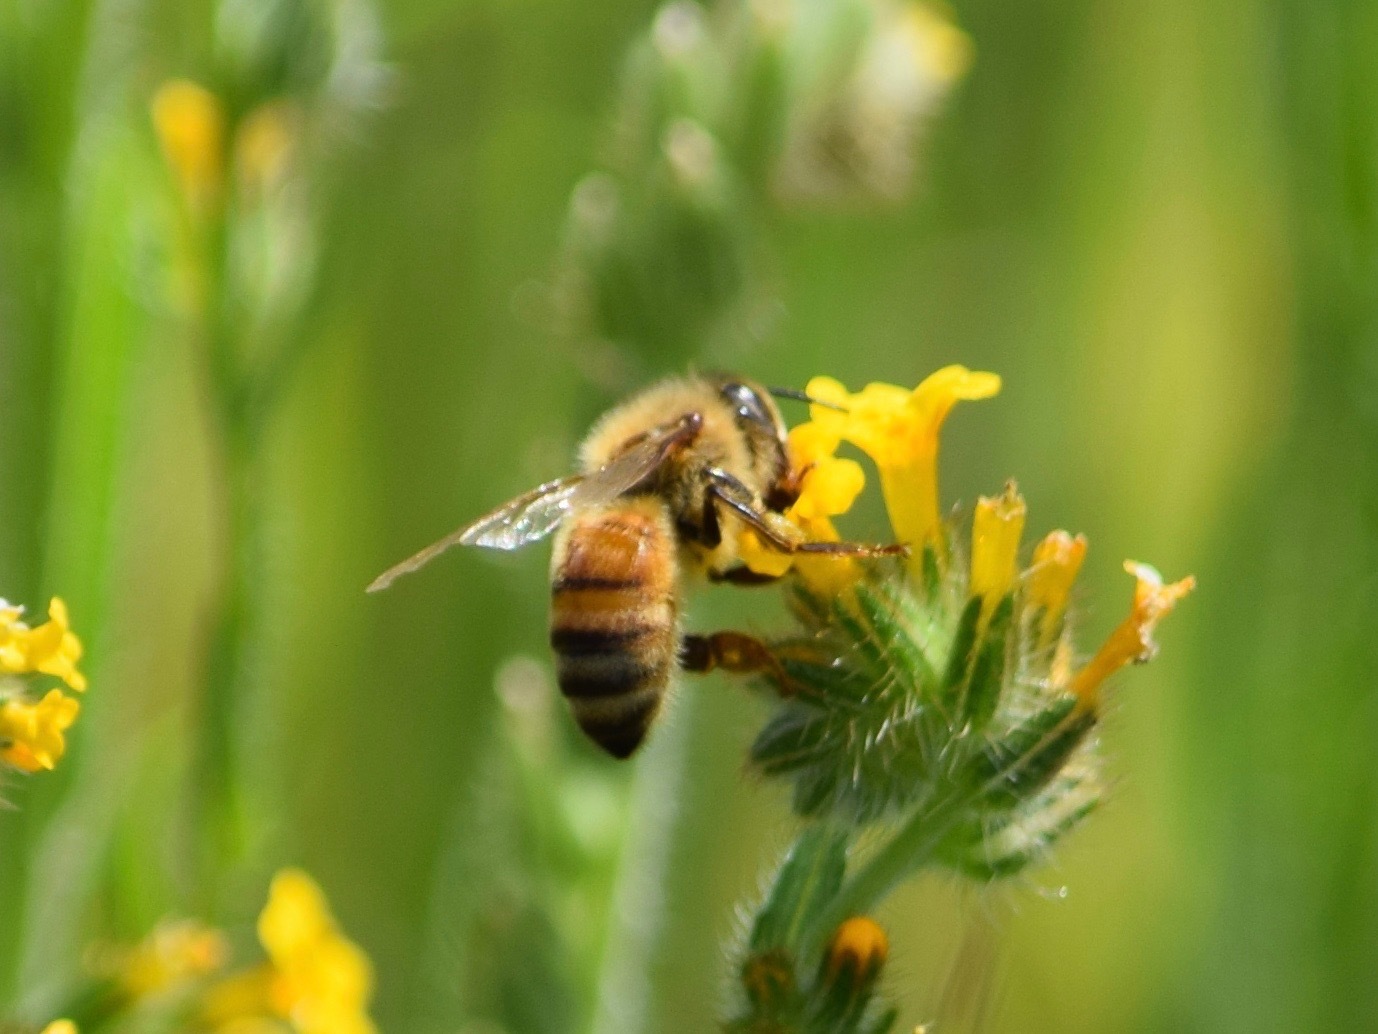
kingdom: Animalia
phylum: Arthropoda
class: Insecta
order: Hymenoptera
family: Apidae
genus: Apis
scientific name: Apis mellifera
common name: Honey bee
